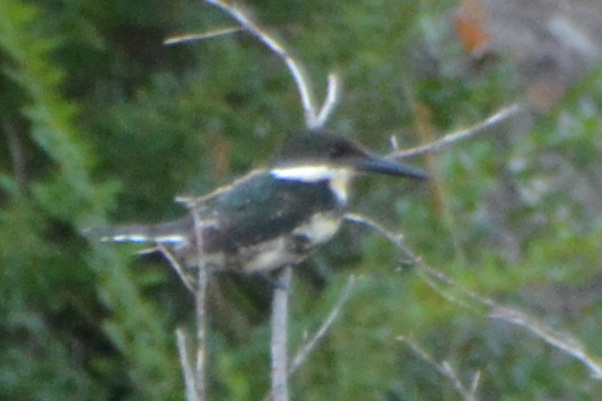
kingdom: Animalia
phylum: Chordata
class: Aves
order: Coraciiformes
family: Alcedinidae
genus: Chloroceryle
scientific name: Chloroceryle americana
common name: Green kingfisher
